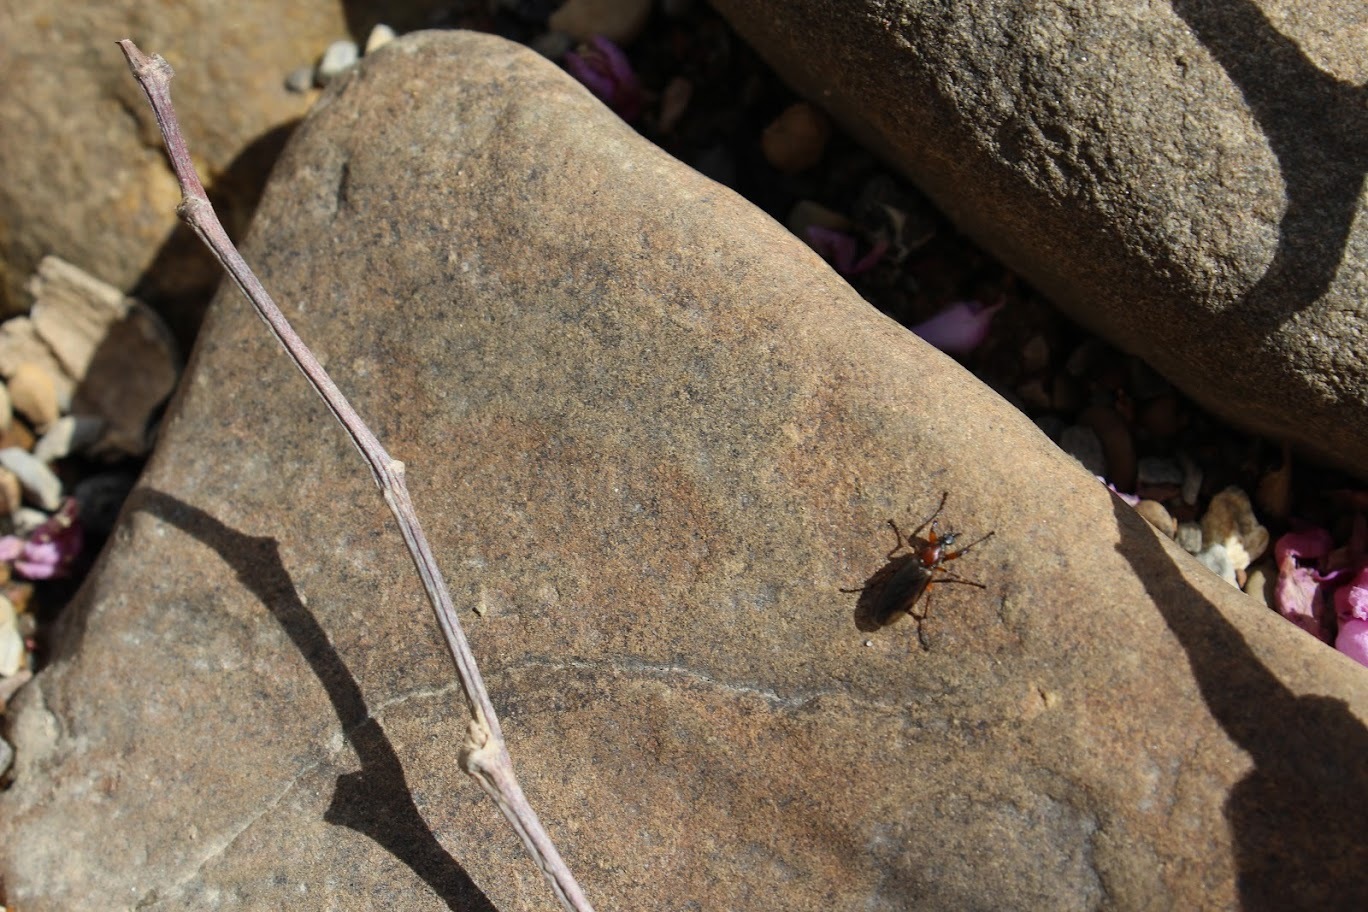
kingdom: Animalia
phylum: Arthropoda
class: Insecta
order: Diptera
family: Bibionidae
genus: Bibio
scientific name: Bibio articulatus
